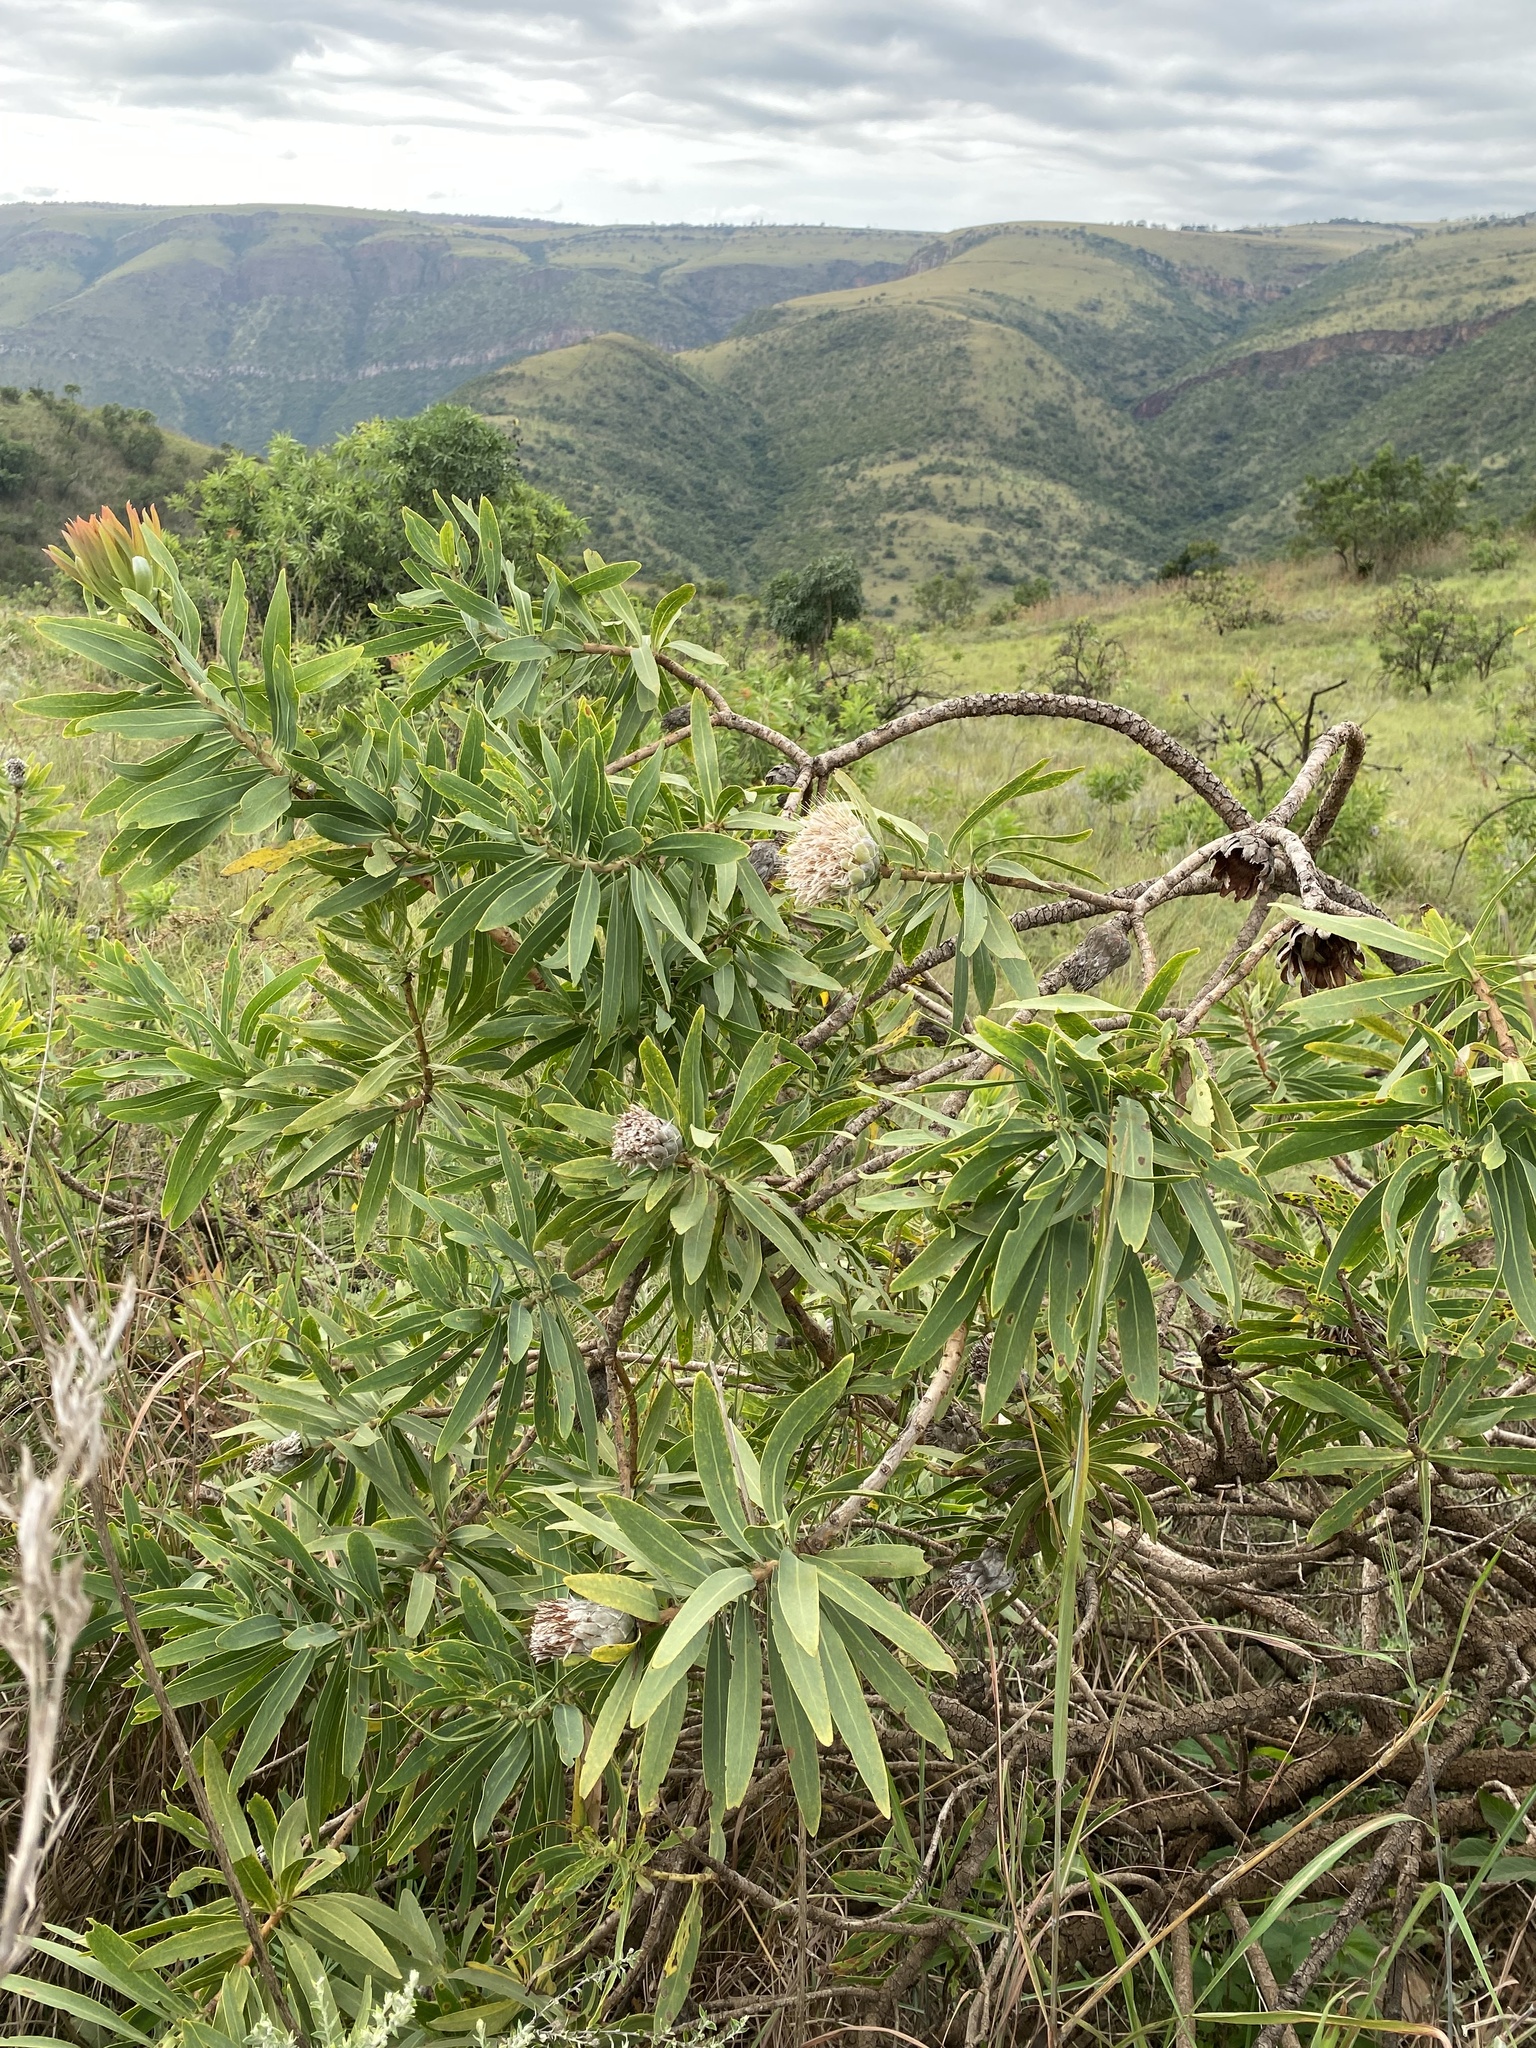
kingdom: Plantae
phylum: Tracheophyta
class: Magnoliopsida
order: Proteales
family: Proteaceae
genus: Protea
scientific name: Protea gaguedi
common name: African protea
